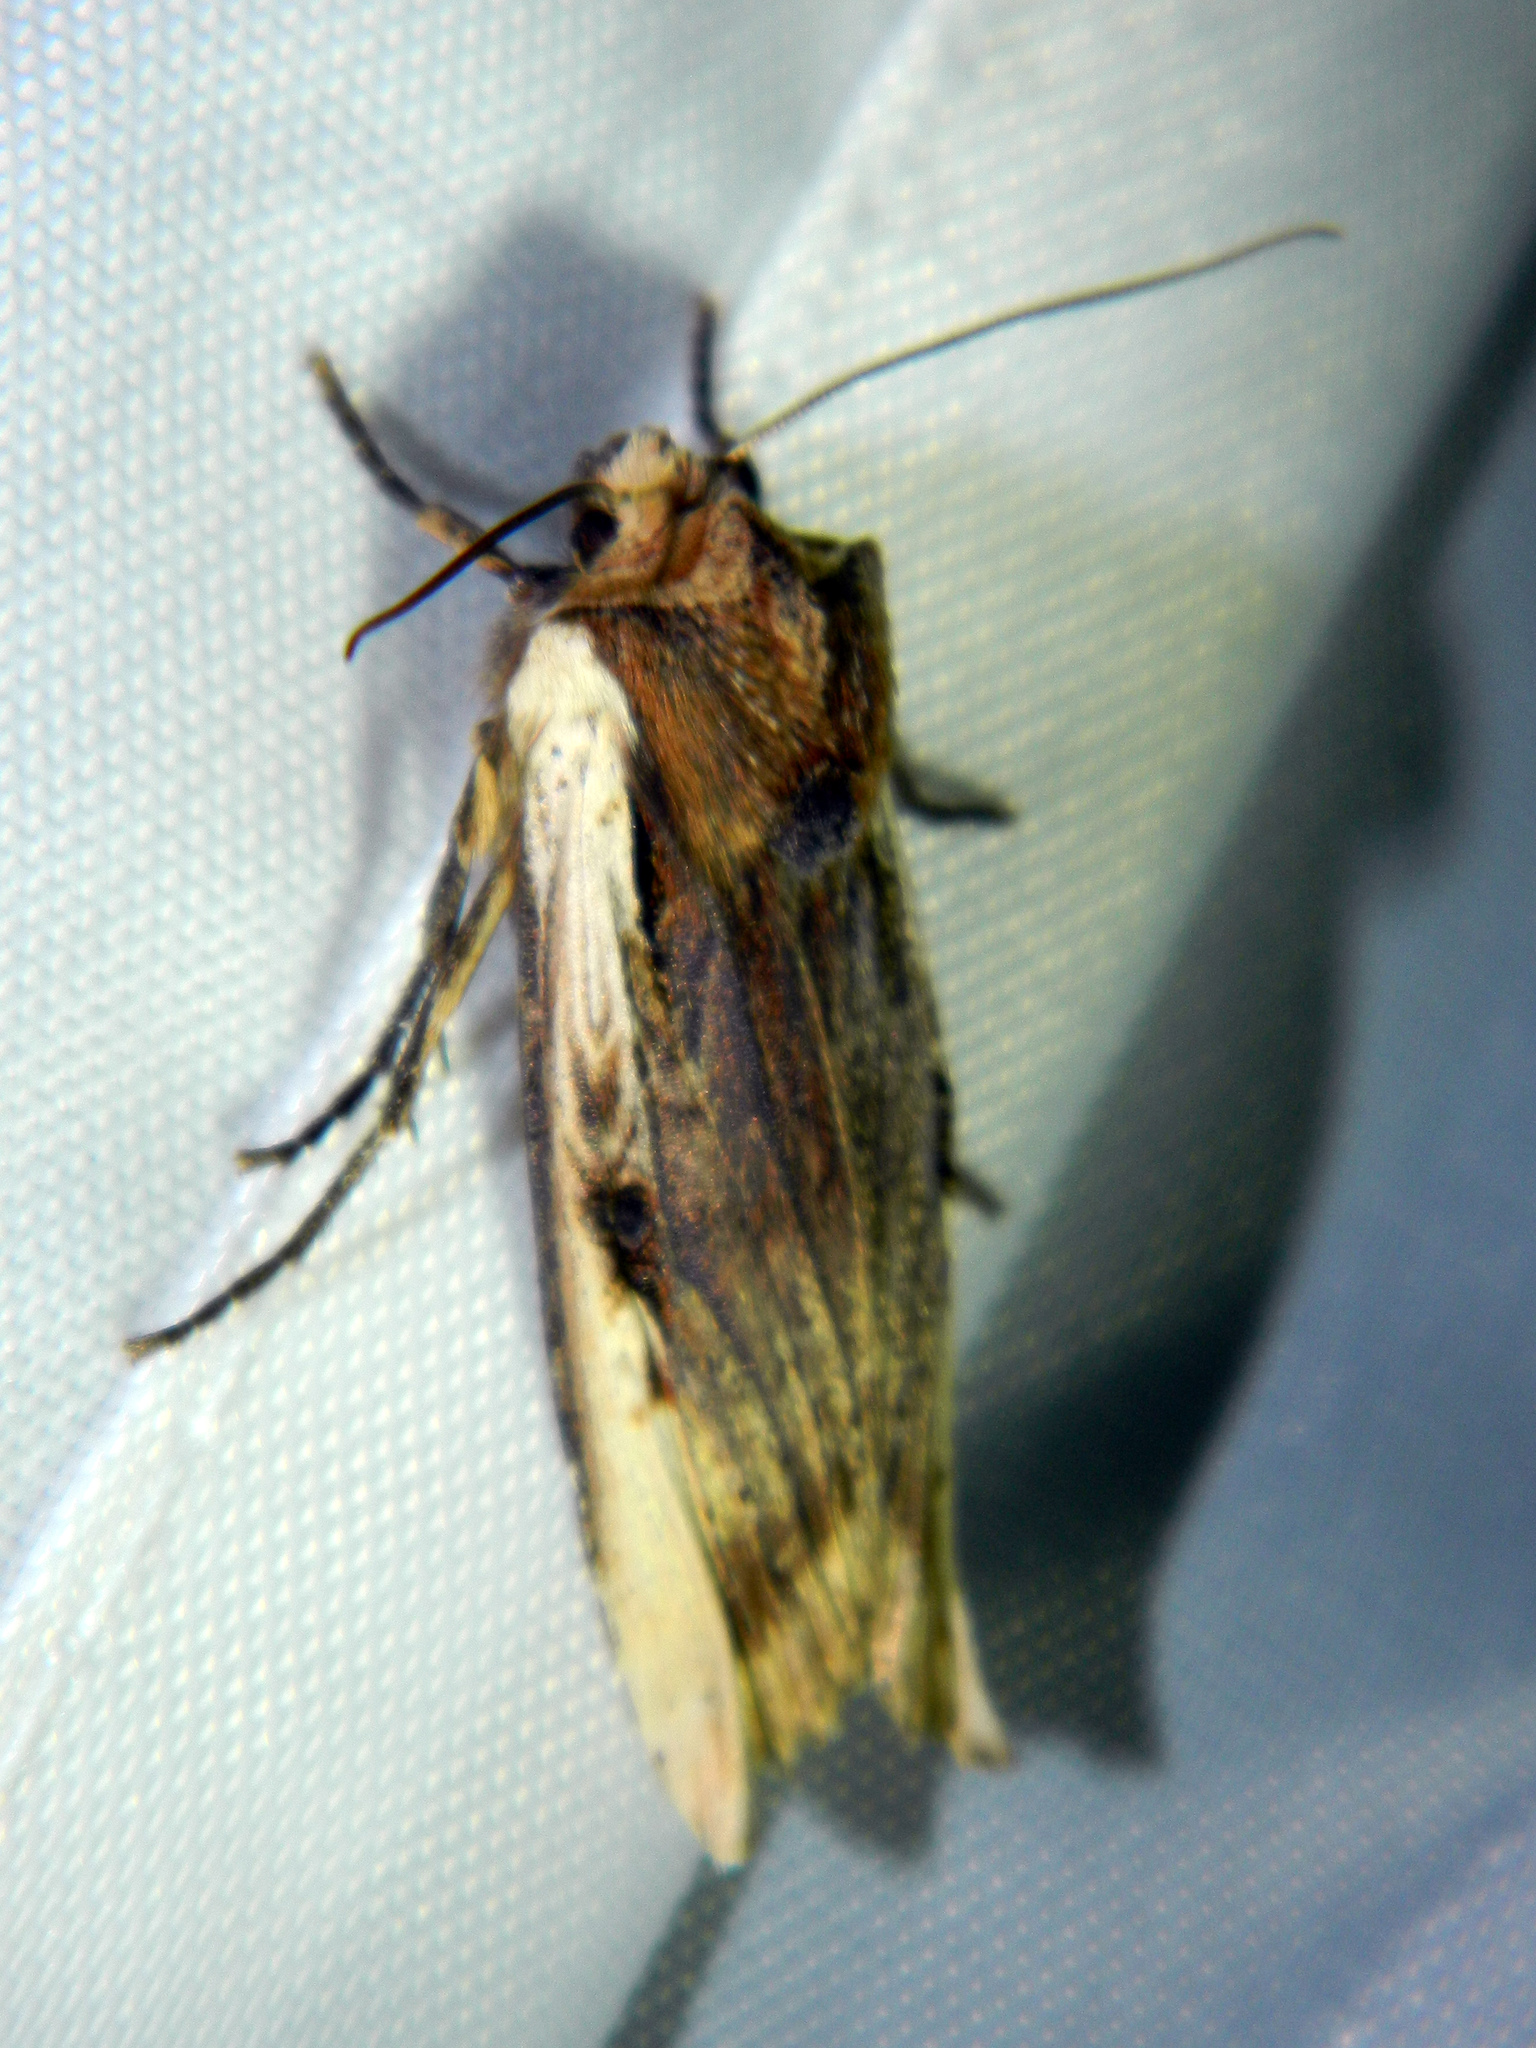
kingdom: Animalia
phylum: Arthropoda
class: Insecta
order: Lepidoptera
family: Noctuidae
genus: Xylena
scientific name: Xylena curvimacula
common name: Dot-and-dash swordgrass moth
